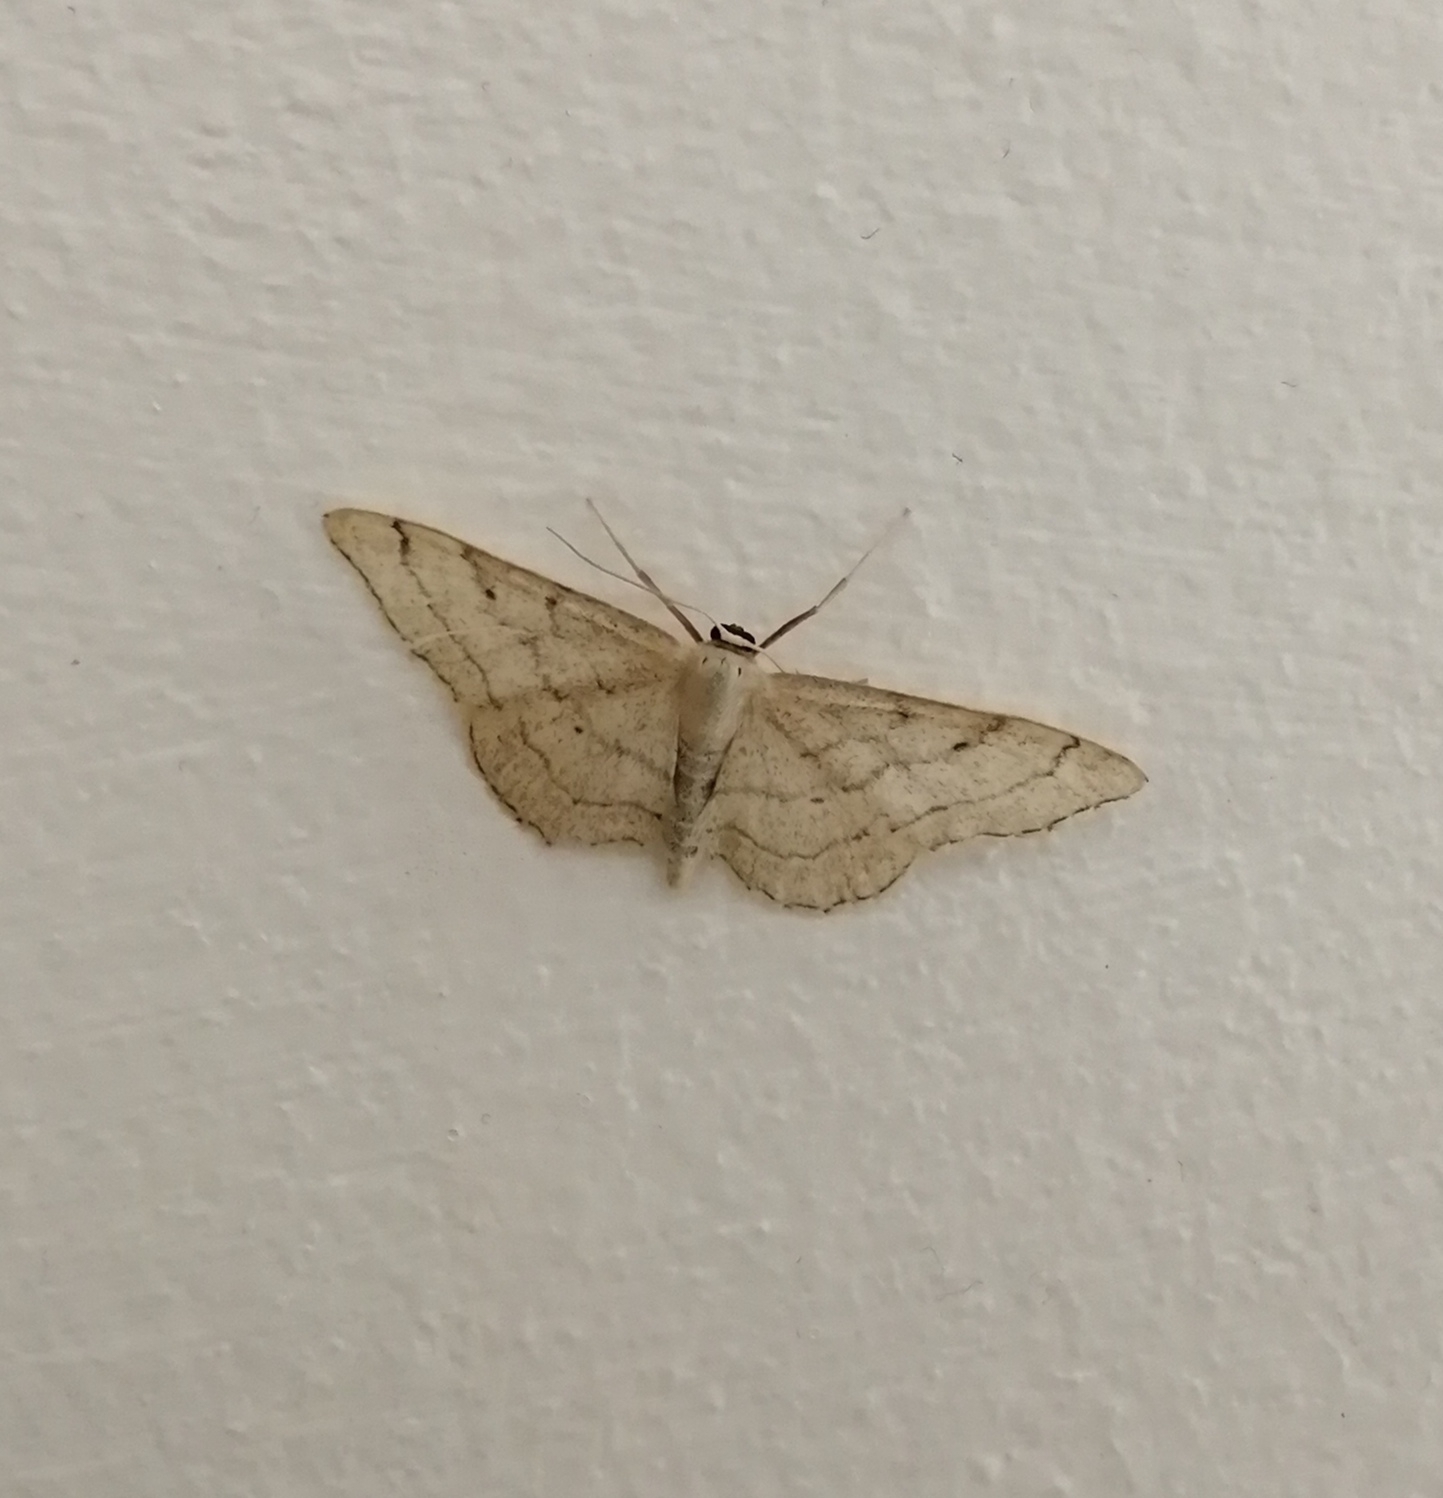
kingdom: Animalia
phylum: Arthropoda
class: Insecta
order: Lepidoptera
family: Geometridae
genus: Idaea
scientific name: Idaea aversata
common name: Riband wave
